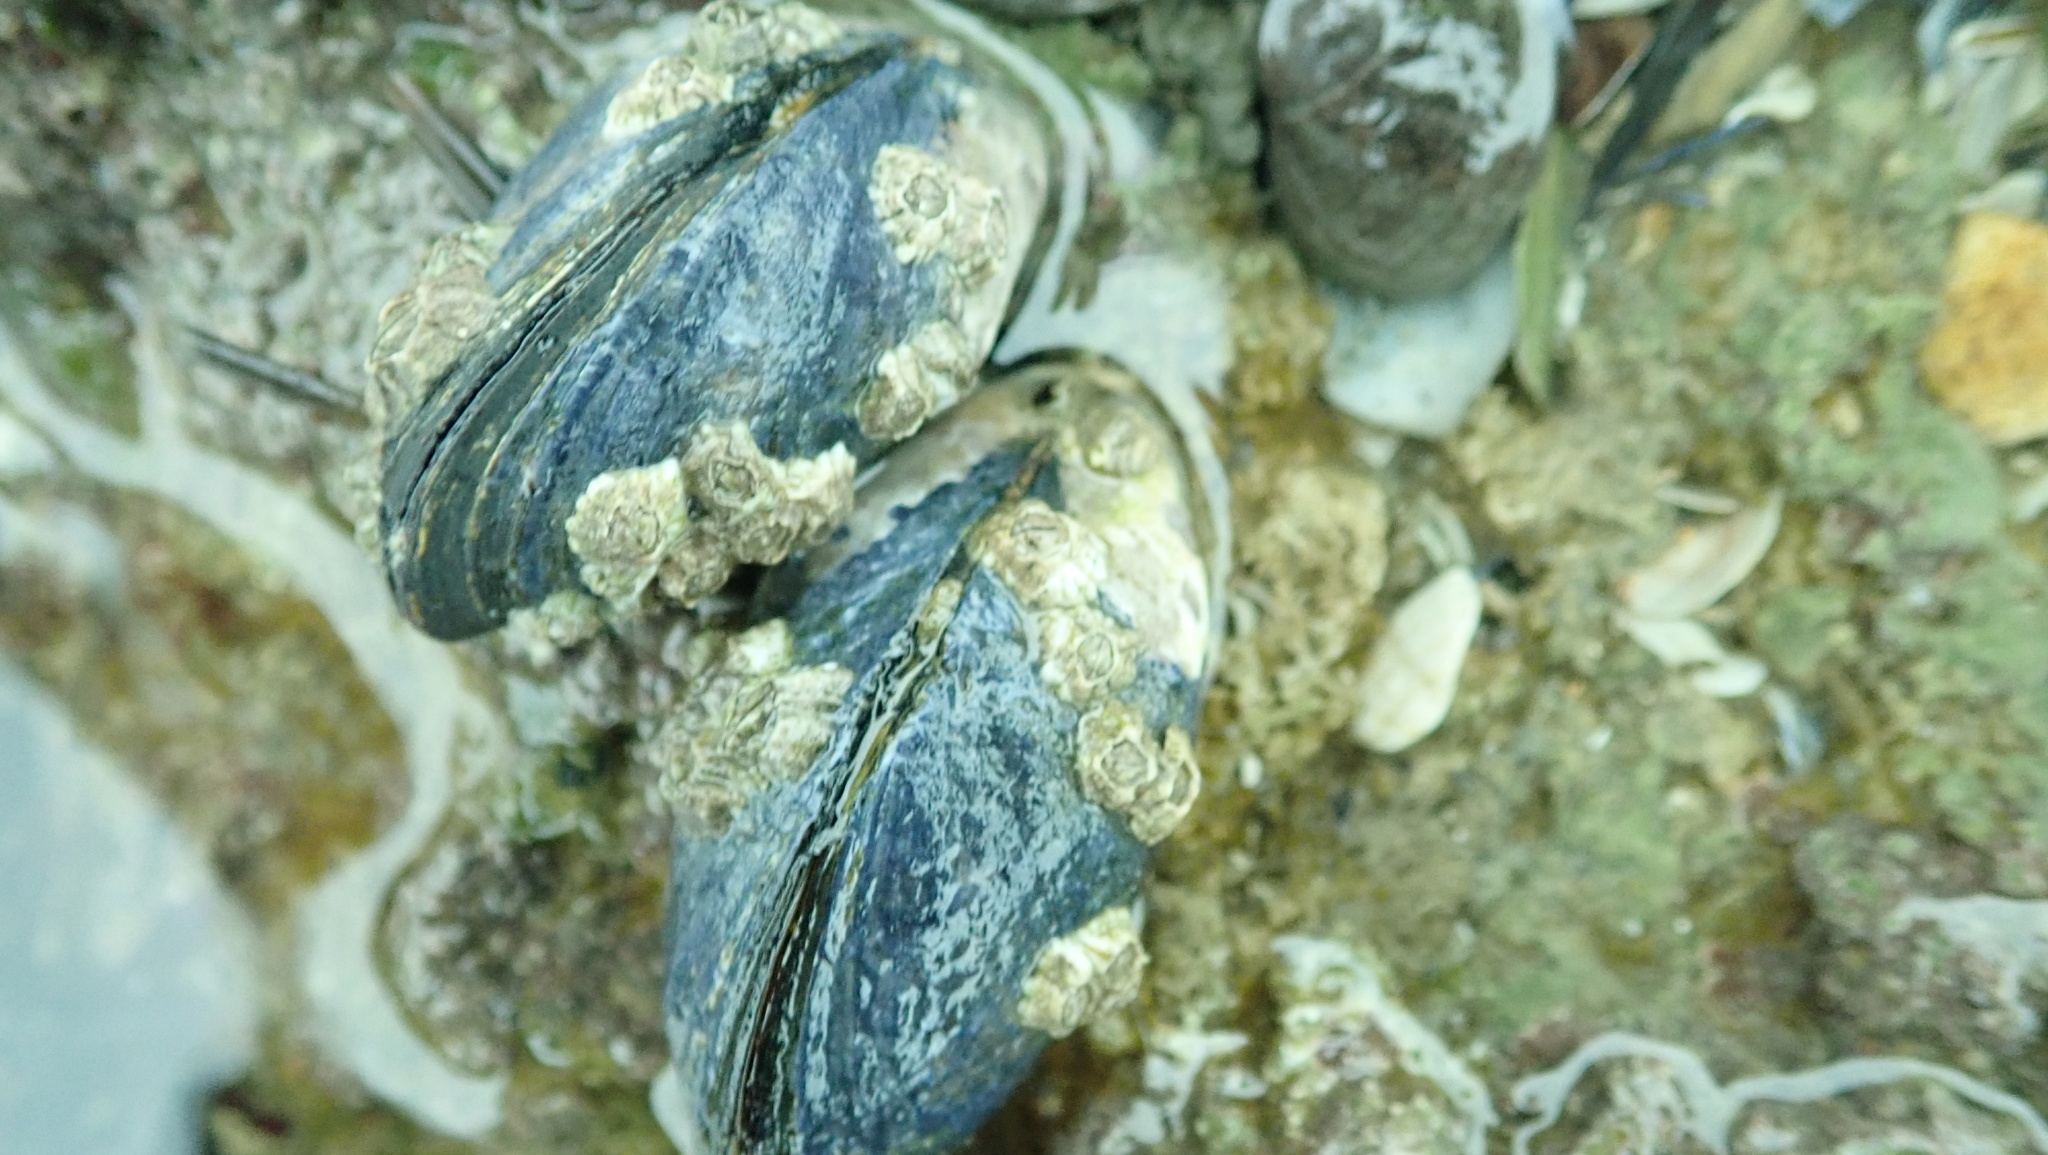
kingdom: Animalia
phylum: Mollusca
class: Bivalvia
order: Mytilida
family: Mytilidae
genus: Mytilus
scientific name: Mytilus edulis
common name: Blue mussel
